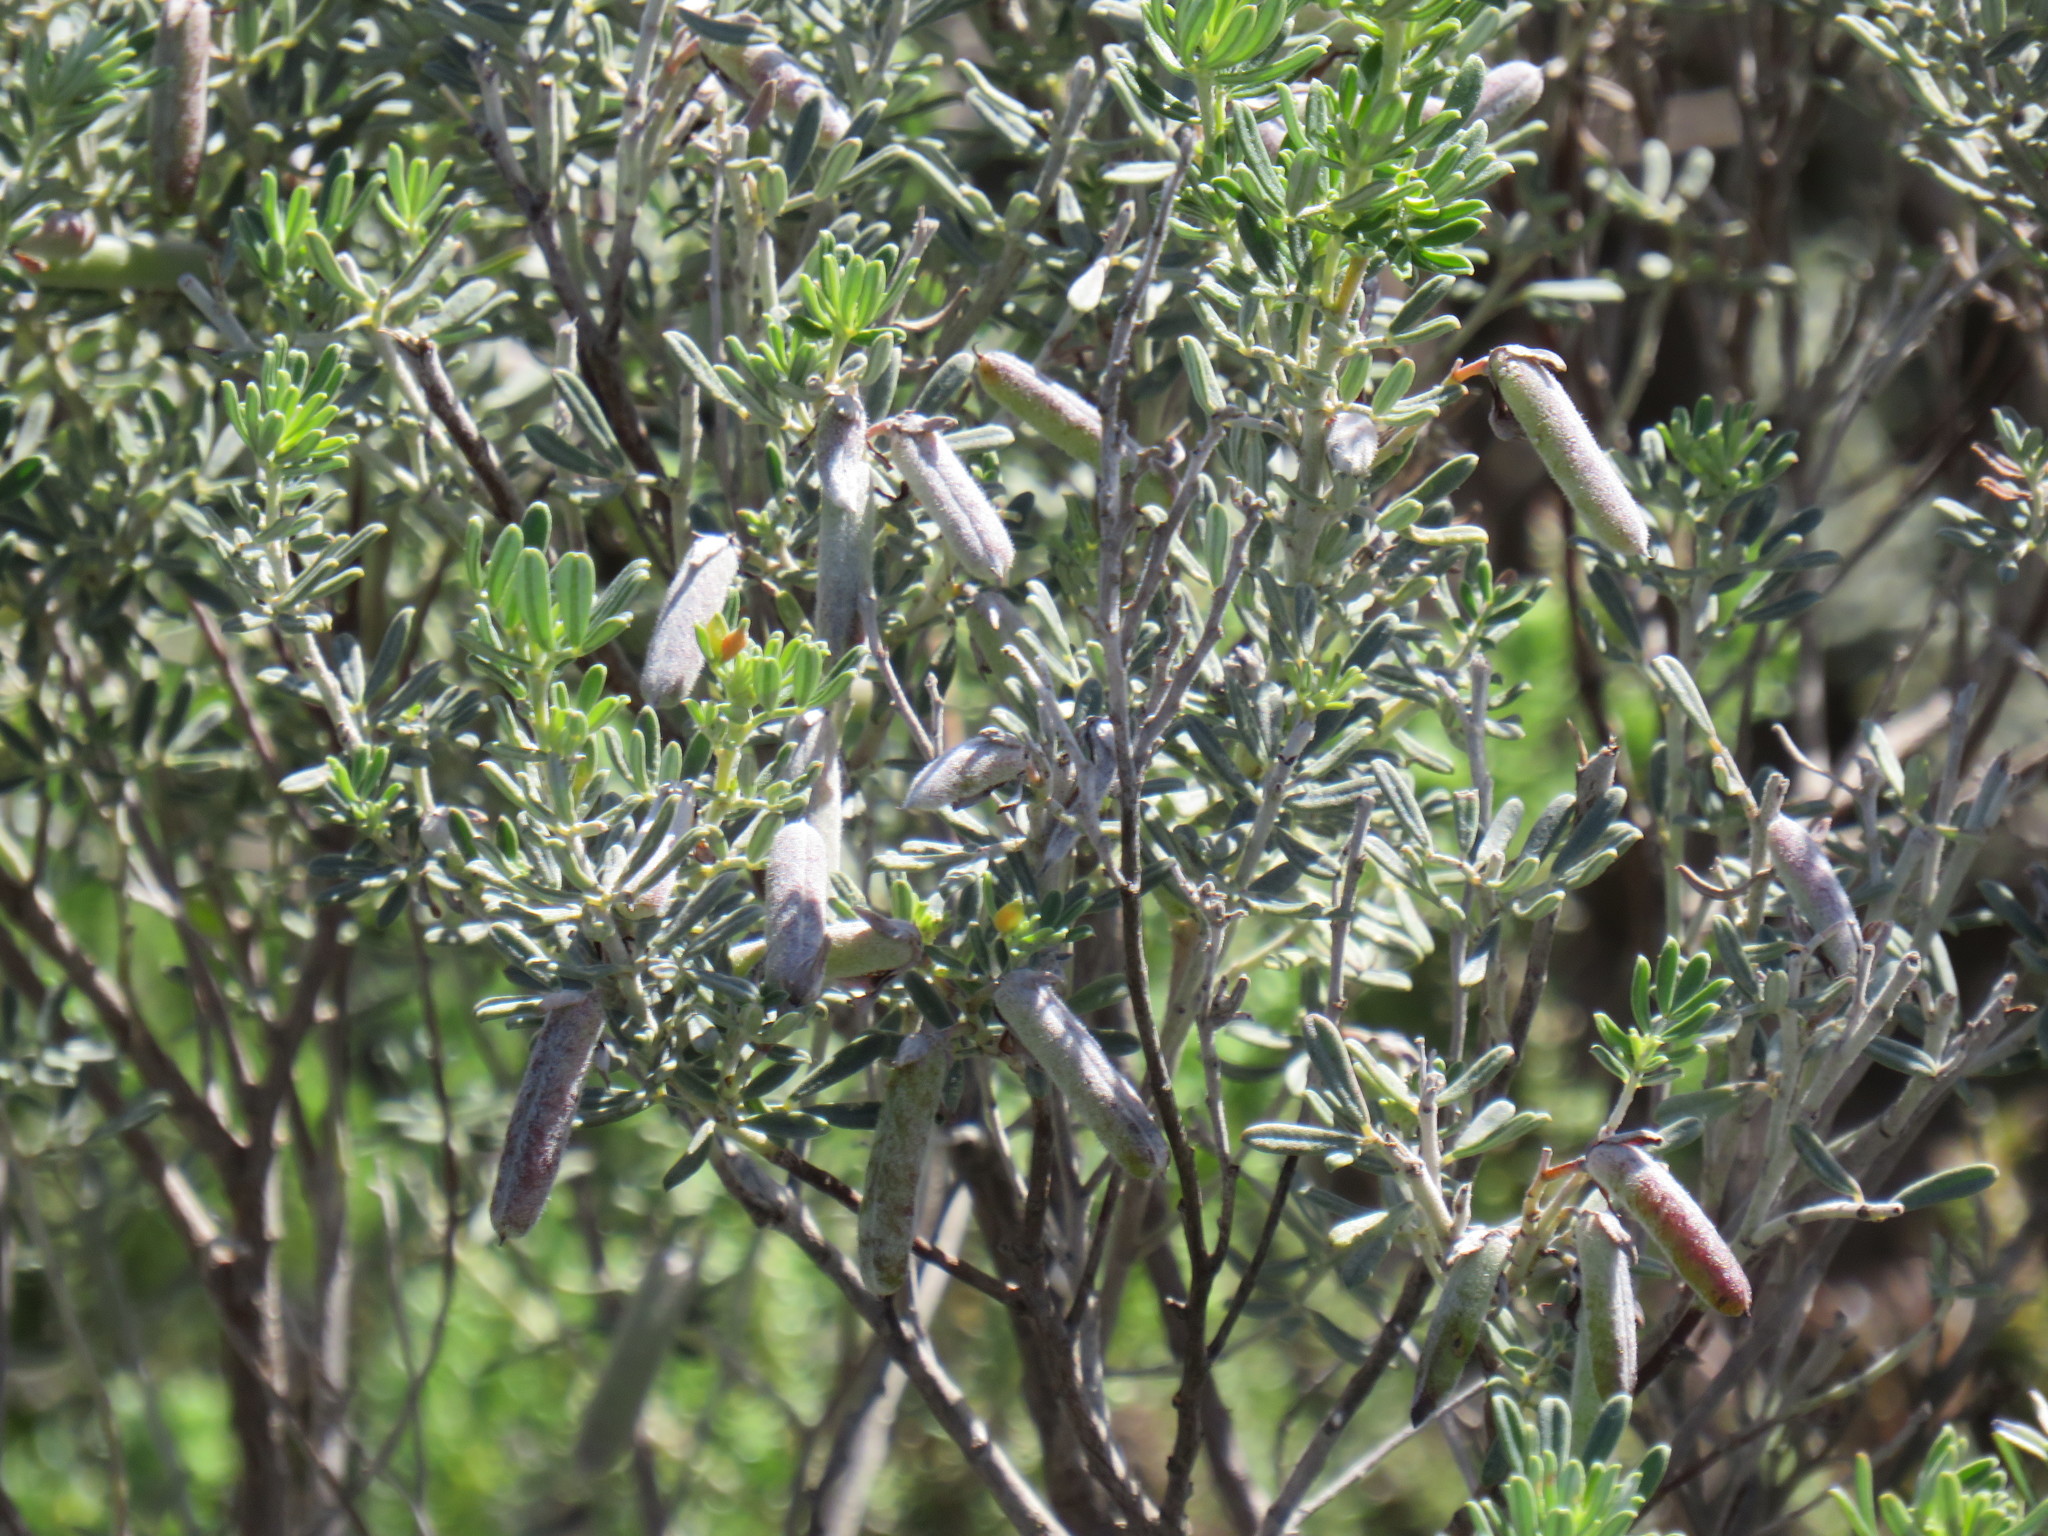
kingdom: Plantae
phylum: Tracheophyta
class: Magnoliopsida
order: Fabales
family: Fabaceae
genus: Indigofera
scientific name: Indigofera brachystachya
